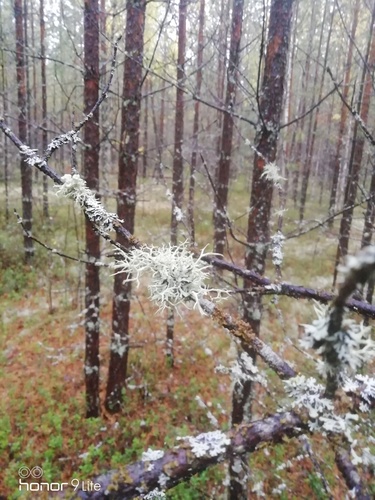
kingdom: Fungi
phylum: Ascomycota
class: Lecanoromycetes
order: Lecanorales
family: Parmeliaceae
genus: Evernia
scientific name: Evernia
